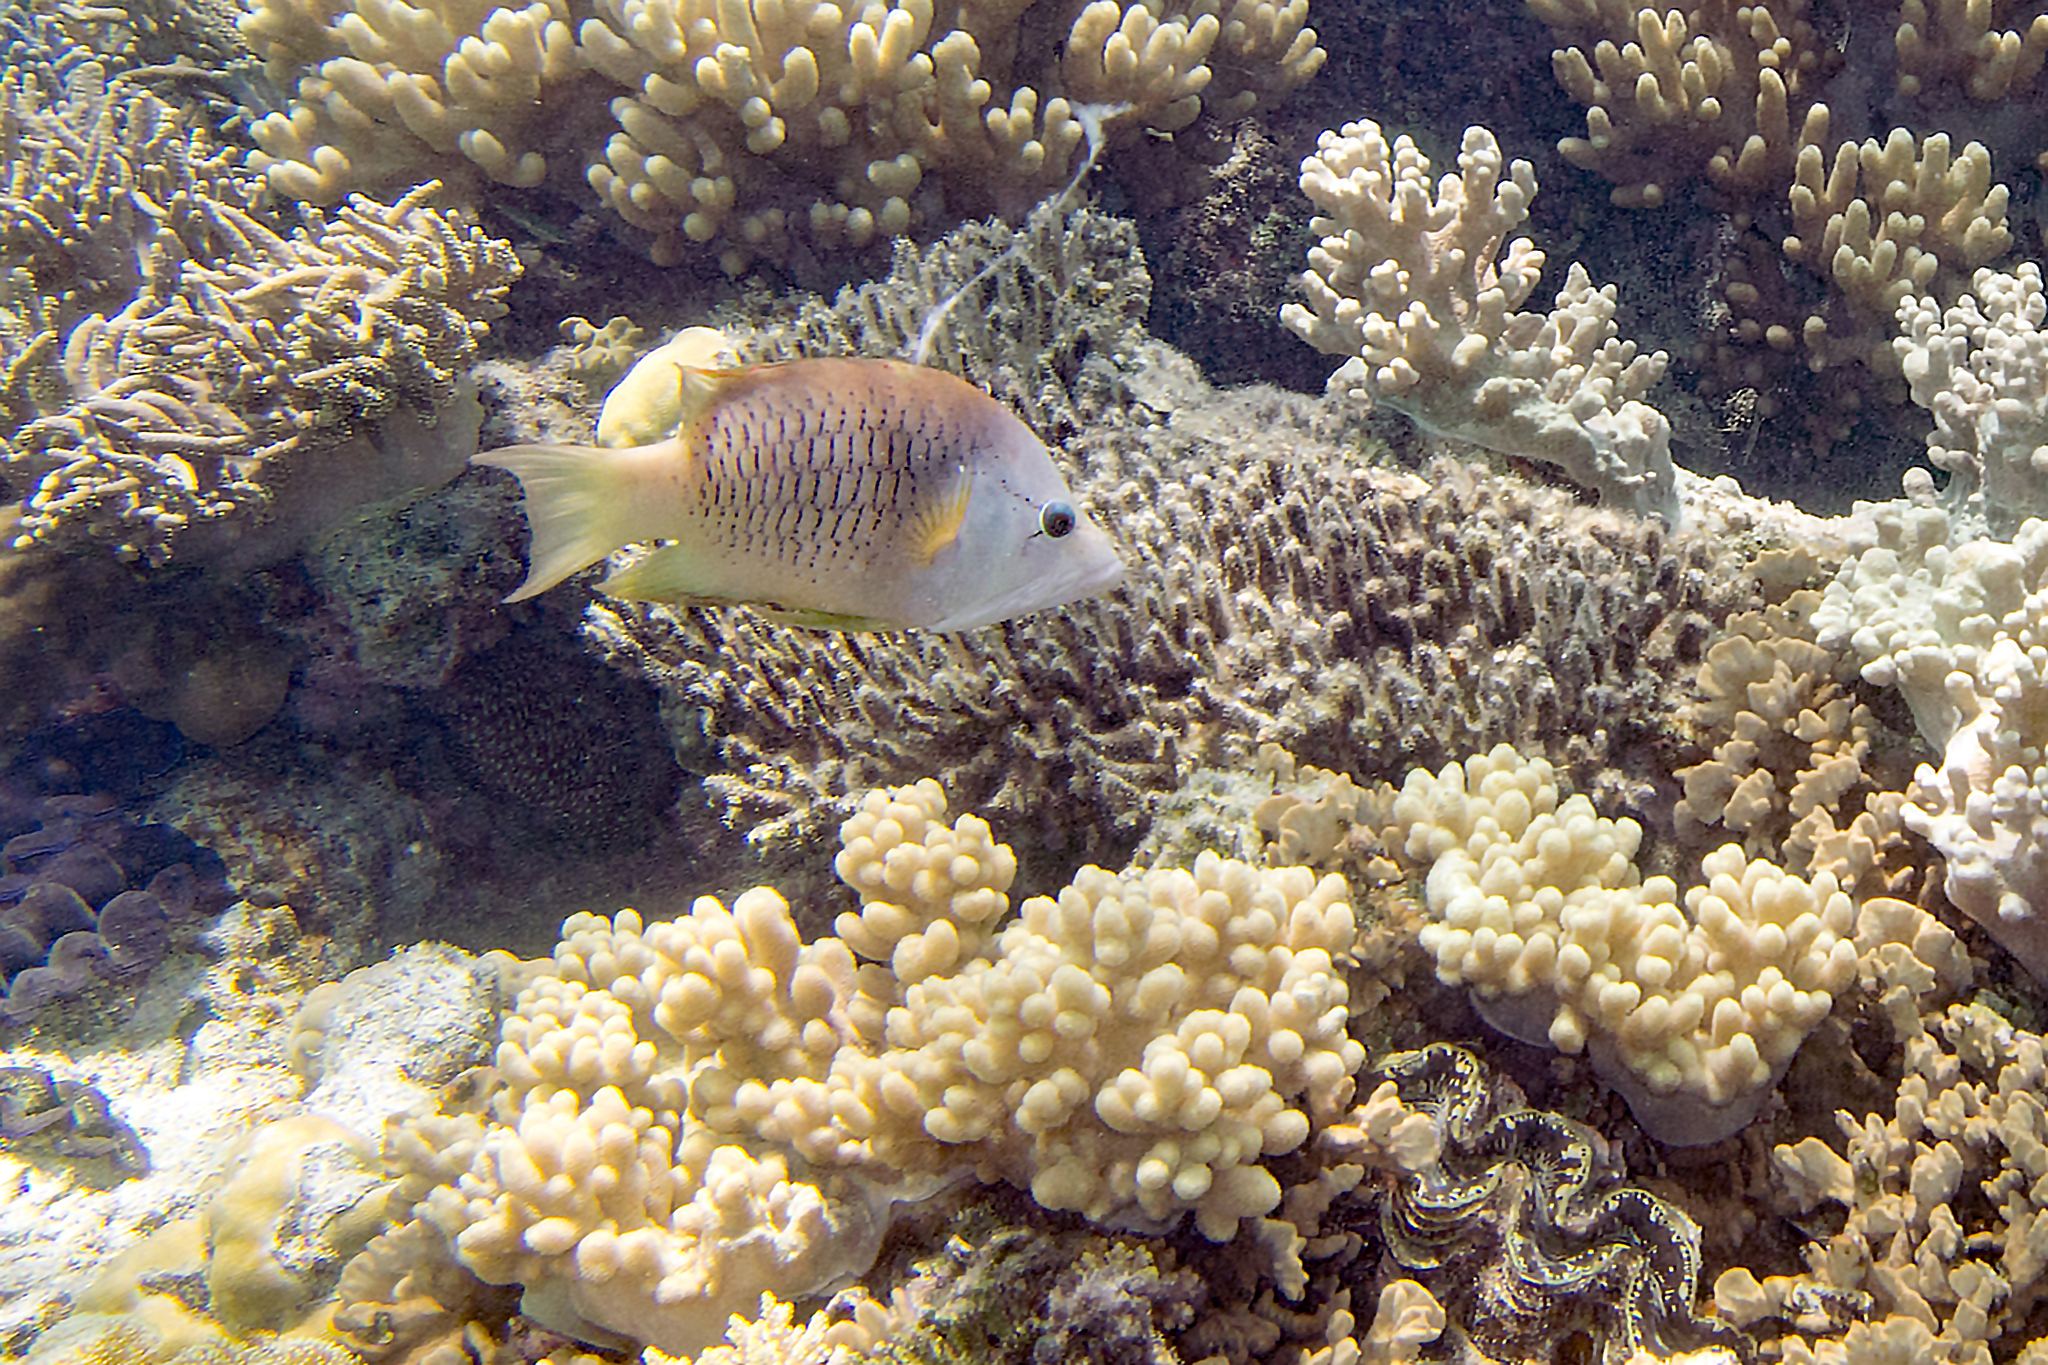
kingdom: Animalia
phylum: Chordata
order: Perciformes
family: Labridae
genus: Epibulus
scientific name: Epibulus insidiator
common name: Slingjaw wrasse
